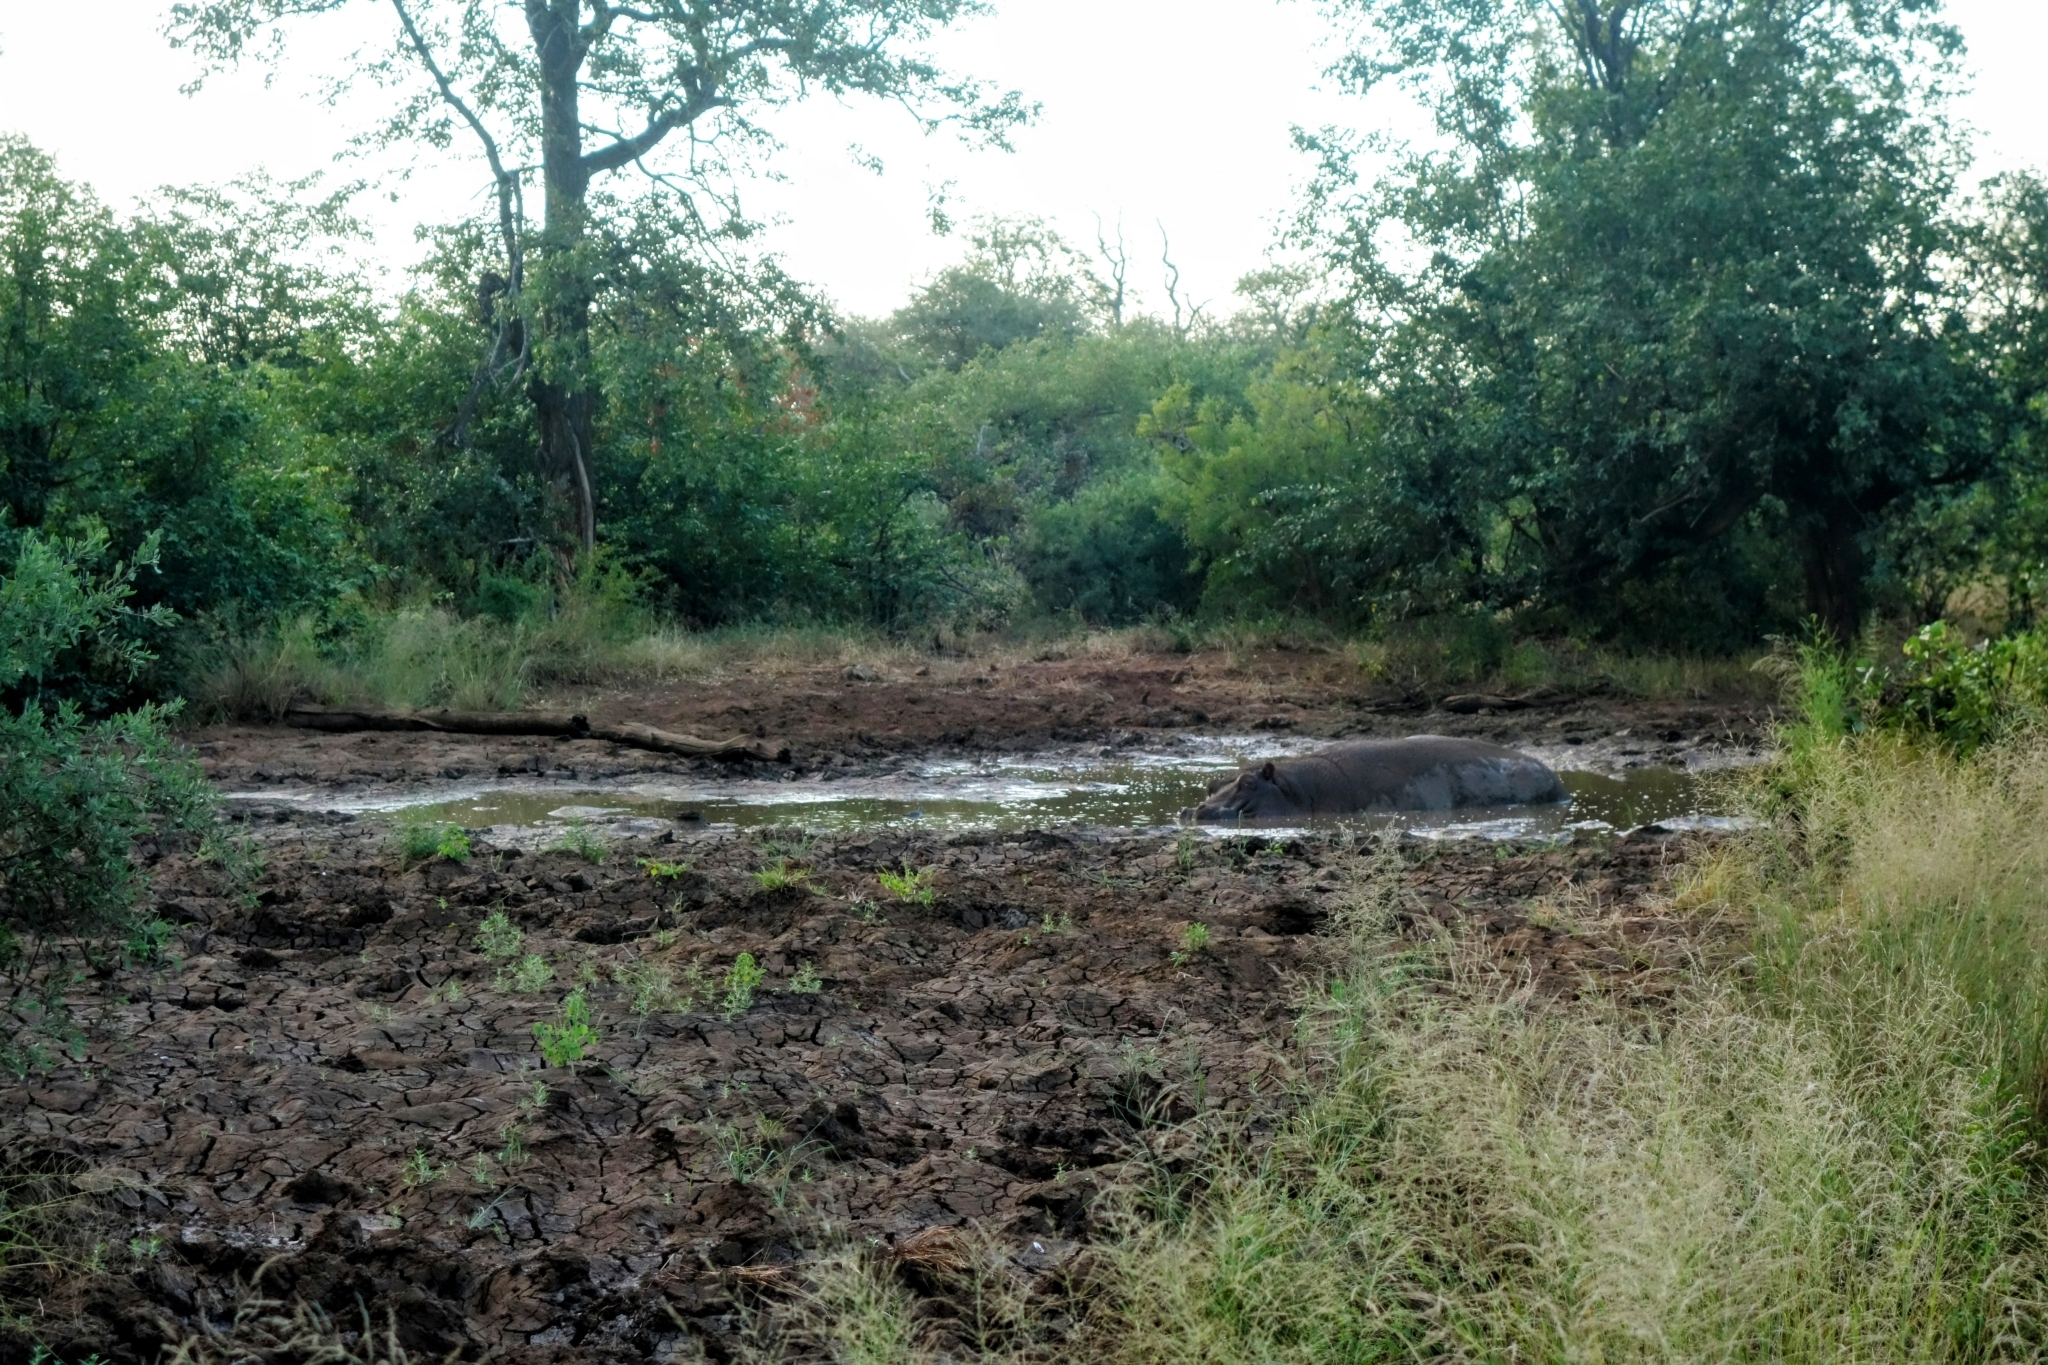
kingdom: Animalia
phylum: Chordata
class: Mammalia
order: Artiodactyla
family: Hippopotamidae
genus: Hippopotamus
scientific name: Hippopotamus amphibius
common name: Common hippopotamus
